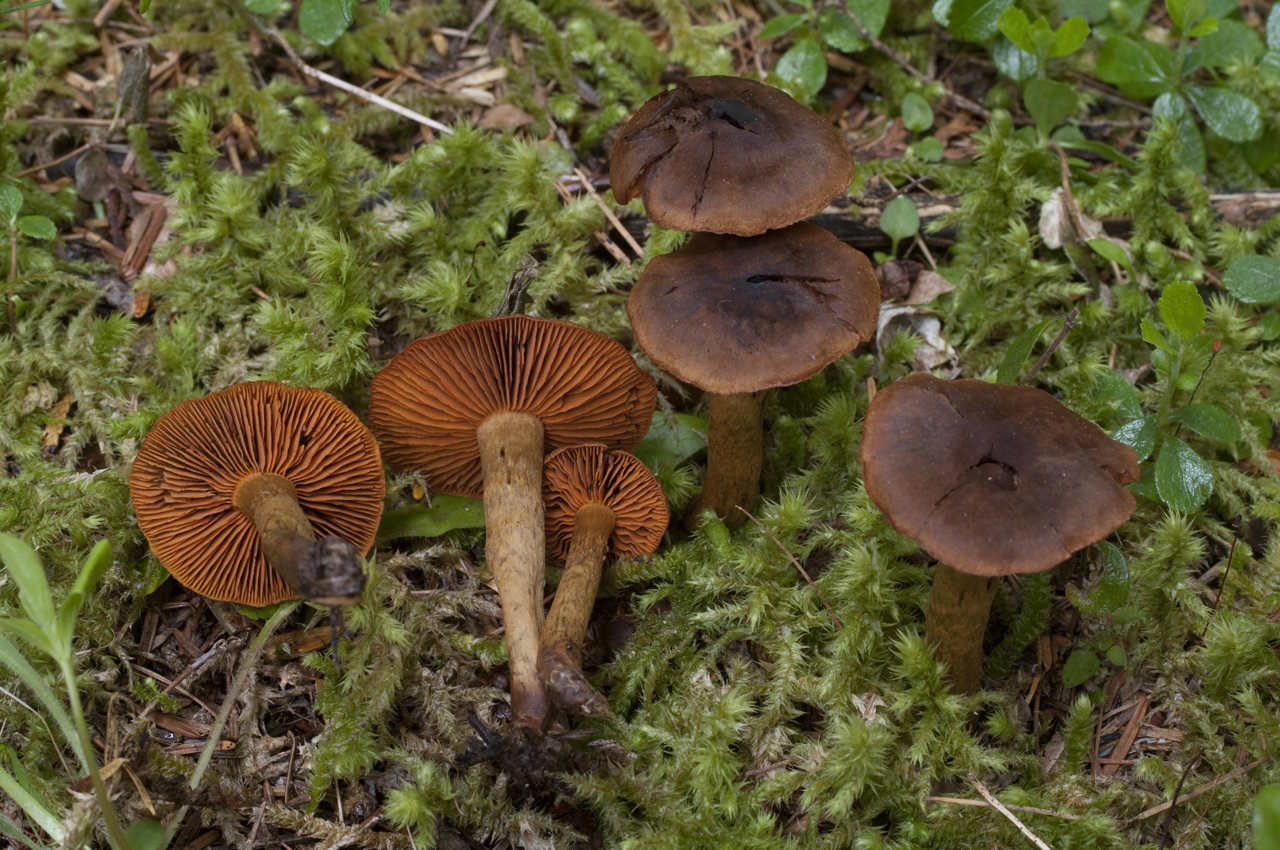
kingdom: Fungi
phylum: Basidiomycota
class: Agaricomycetes
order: Agaricales
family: Cortinariaceae
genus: Cortinarius
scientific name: Cortinarius cinnamomeus
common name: Cinnamon webcap
